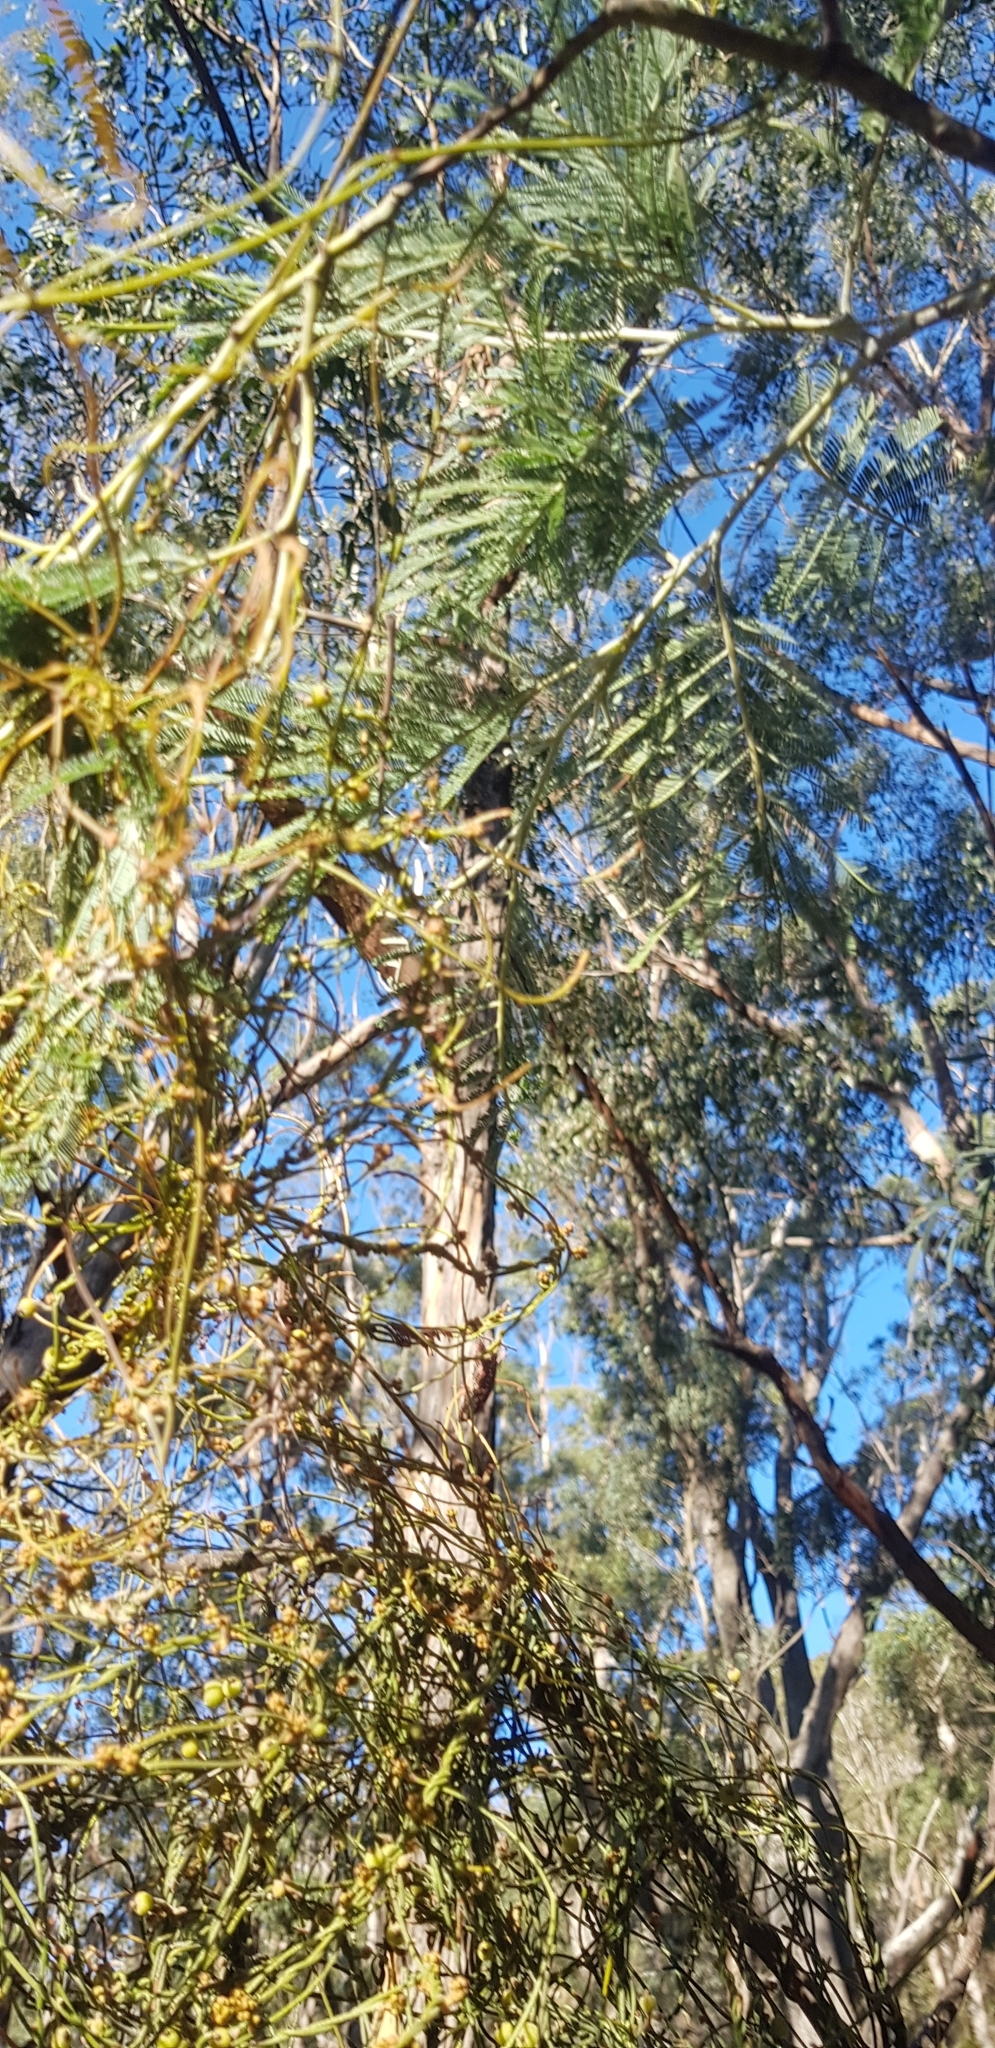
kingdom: Plantae
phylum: Tracheophyta
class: Magnoliopsida
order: Laurales
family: Lauraceae
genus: Cassytha
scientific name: Cassytha pubescens
